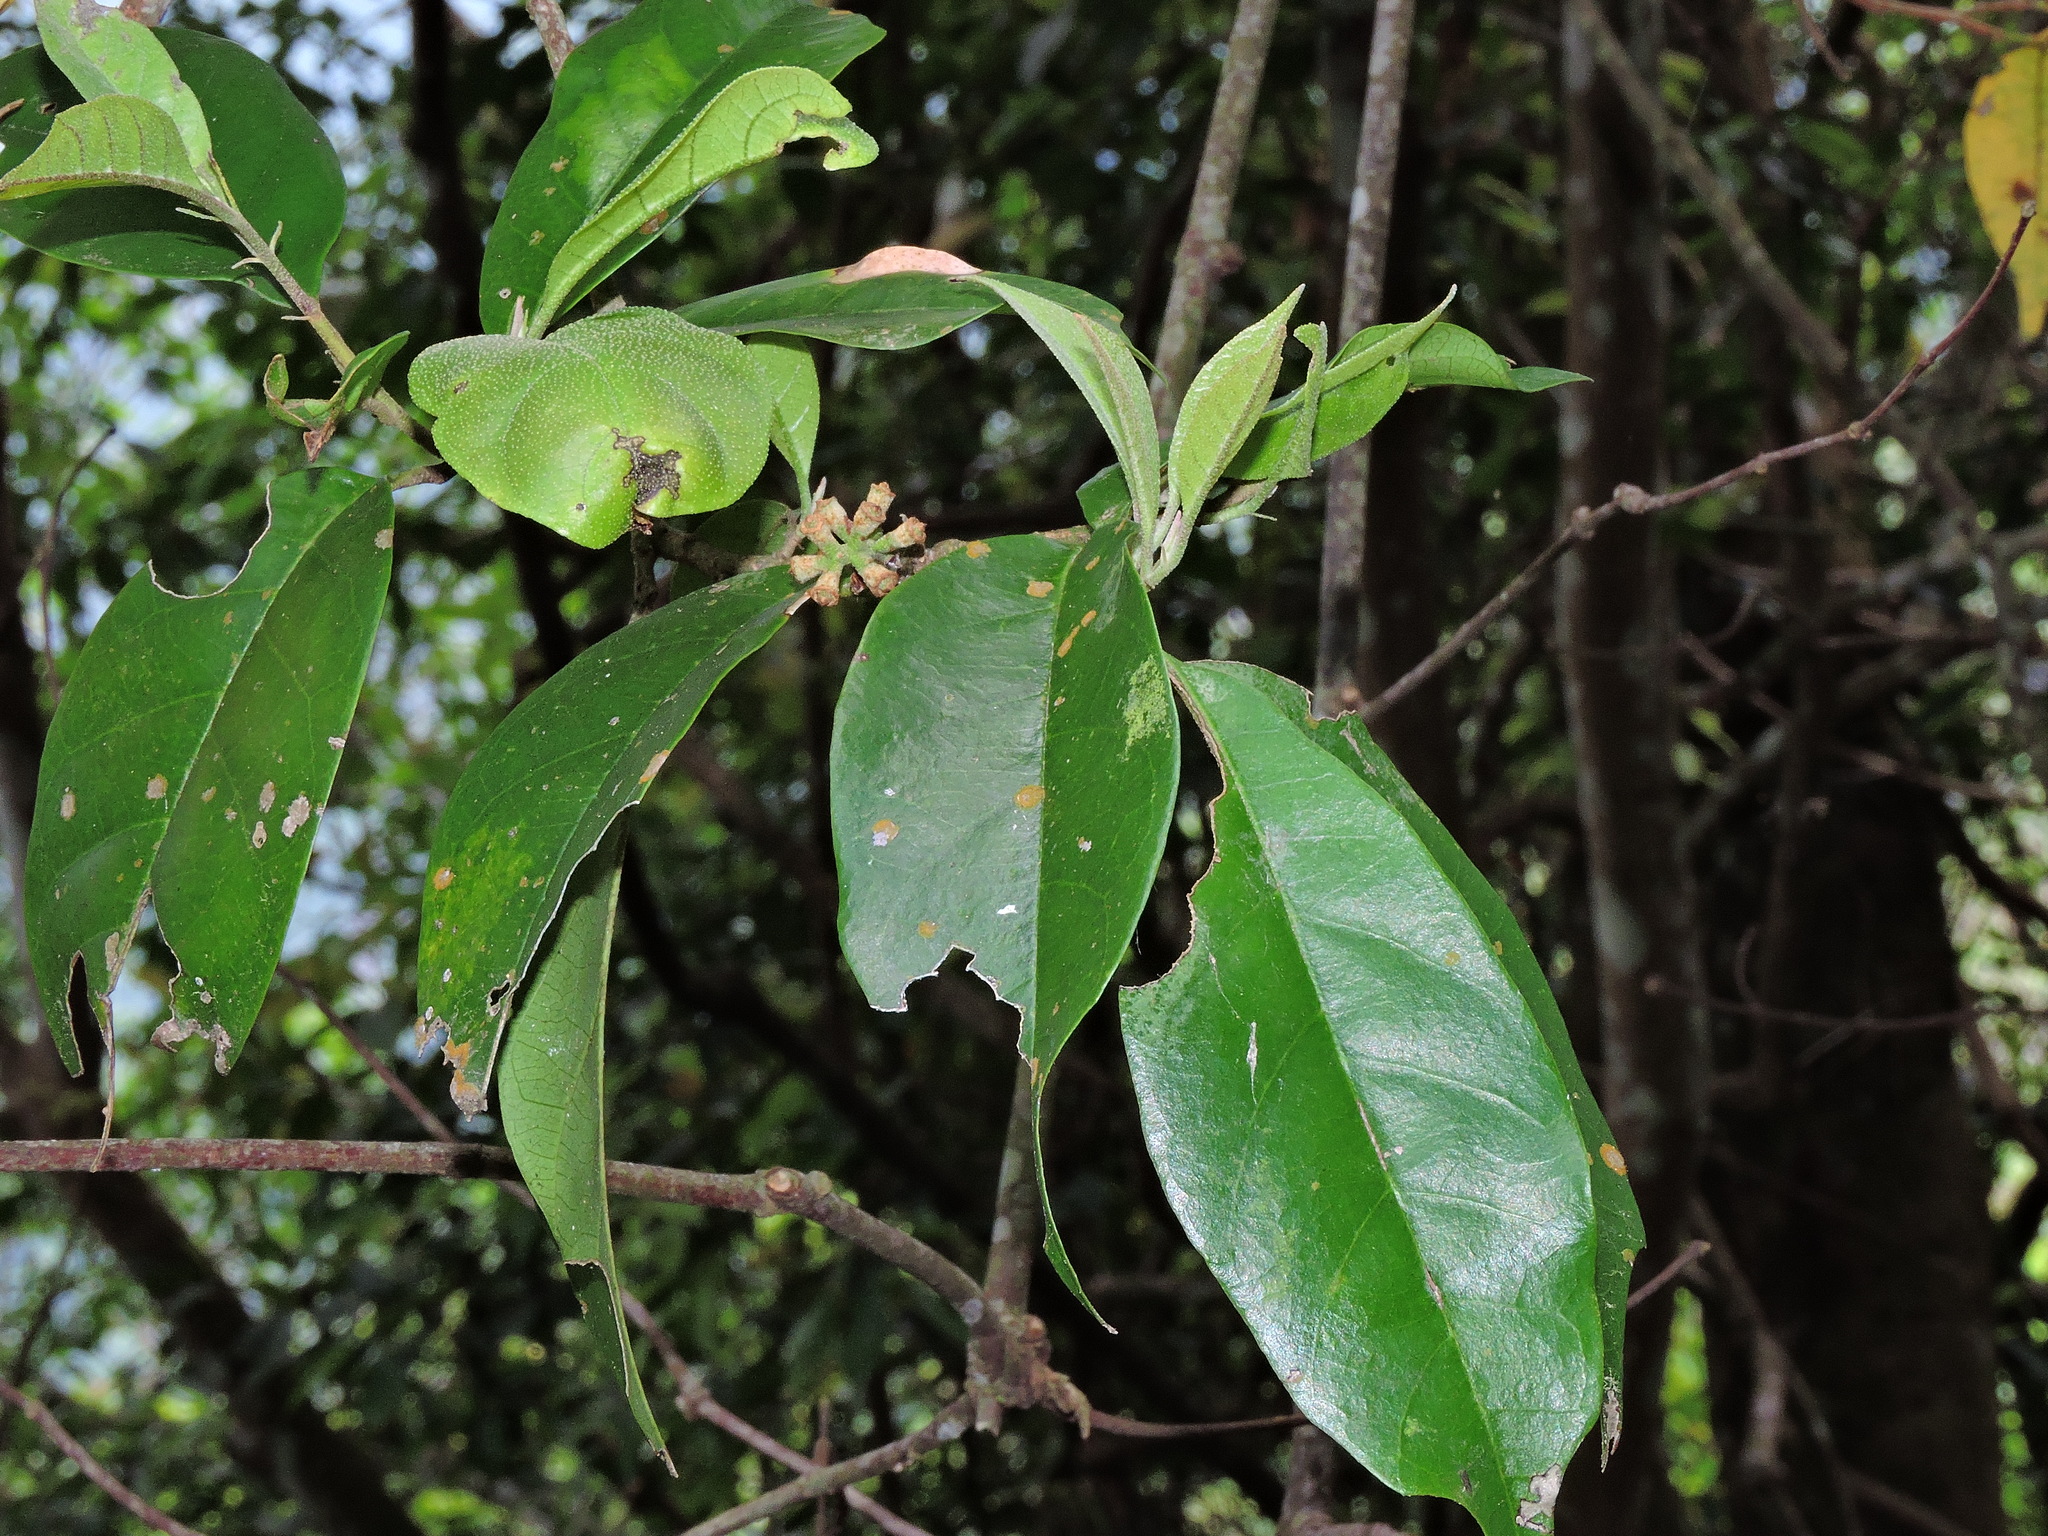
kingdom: Plantae
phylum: Tracheophyta
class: Magnoliopsida
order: Saxifragales
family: Hamamelidaceae
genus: Eustigma
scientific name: Eustigma oblongifolium
